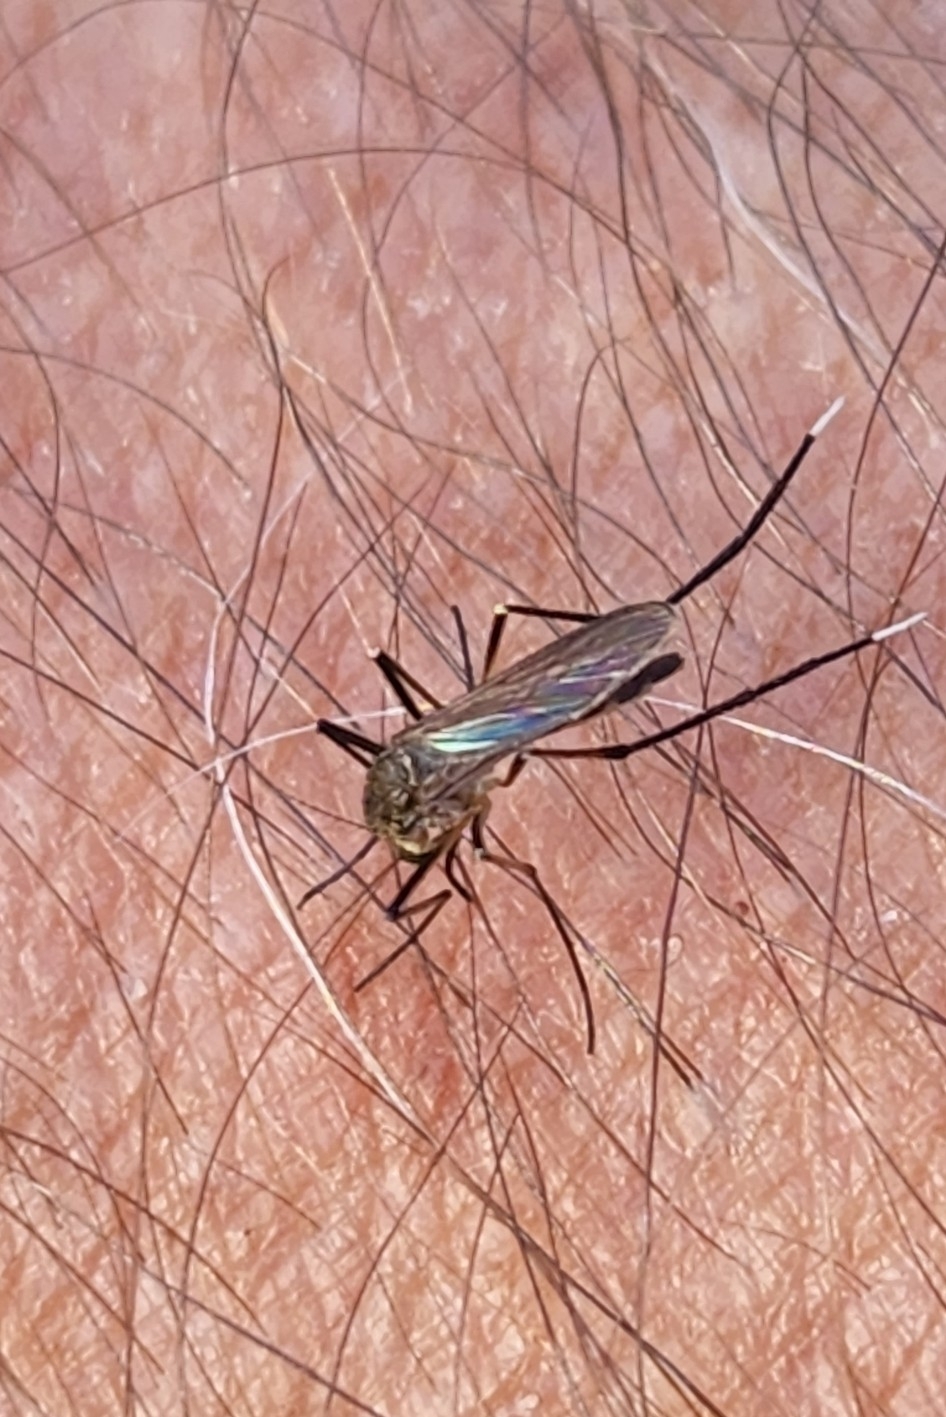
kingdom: Animalia
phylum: Arthropoda
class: Insecta
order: Diptera
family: Culicidae
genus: Psorophora
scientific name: Psorophora ferox
